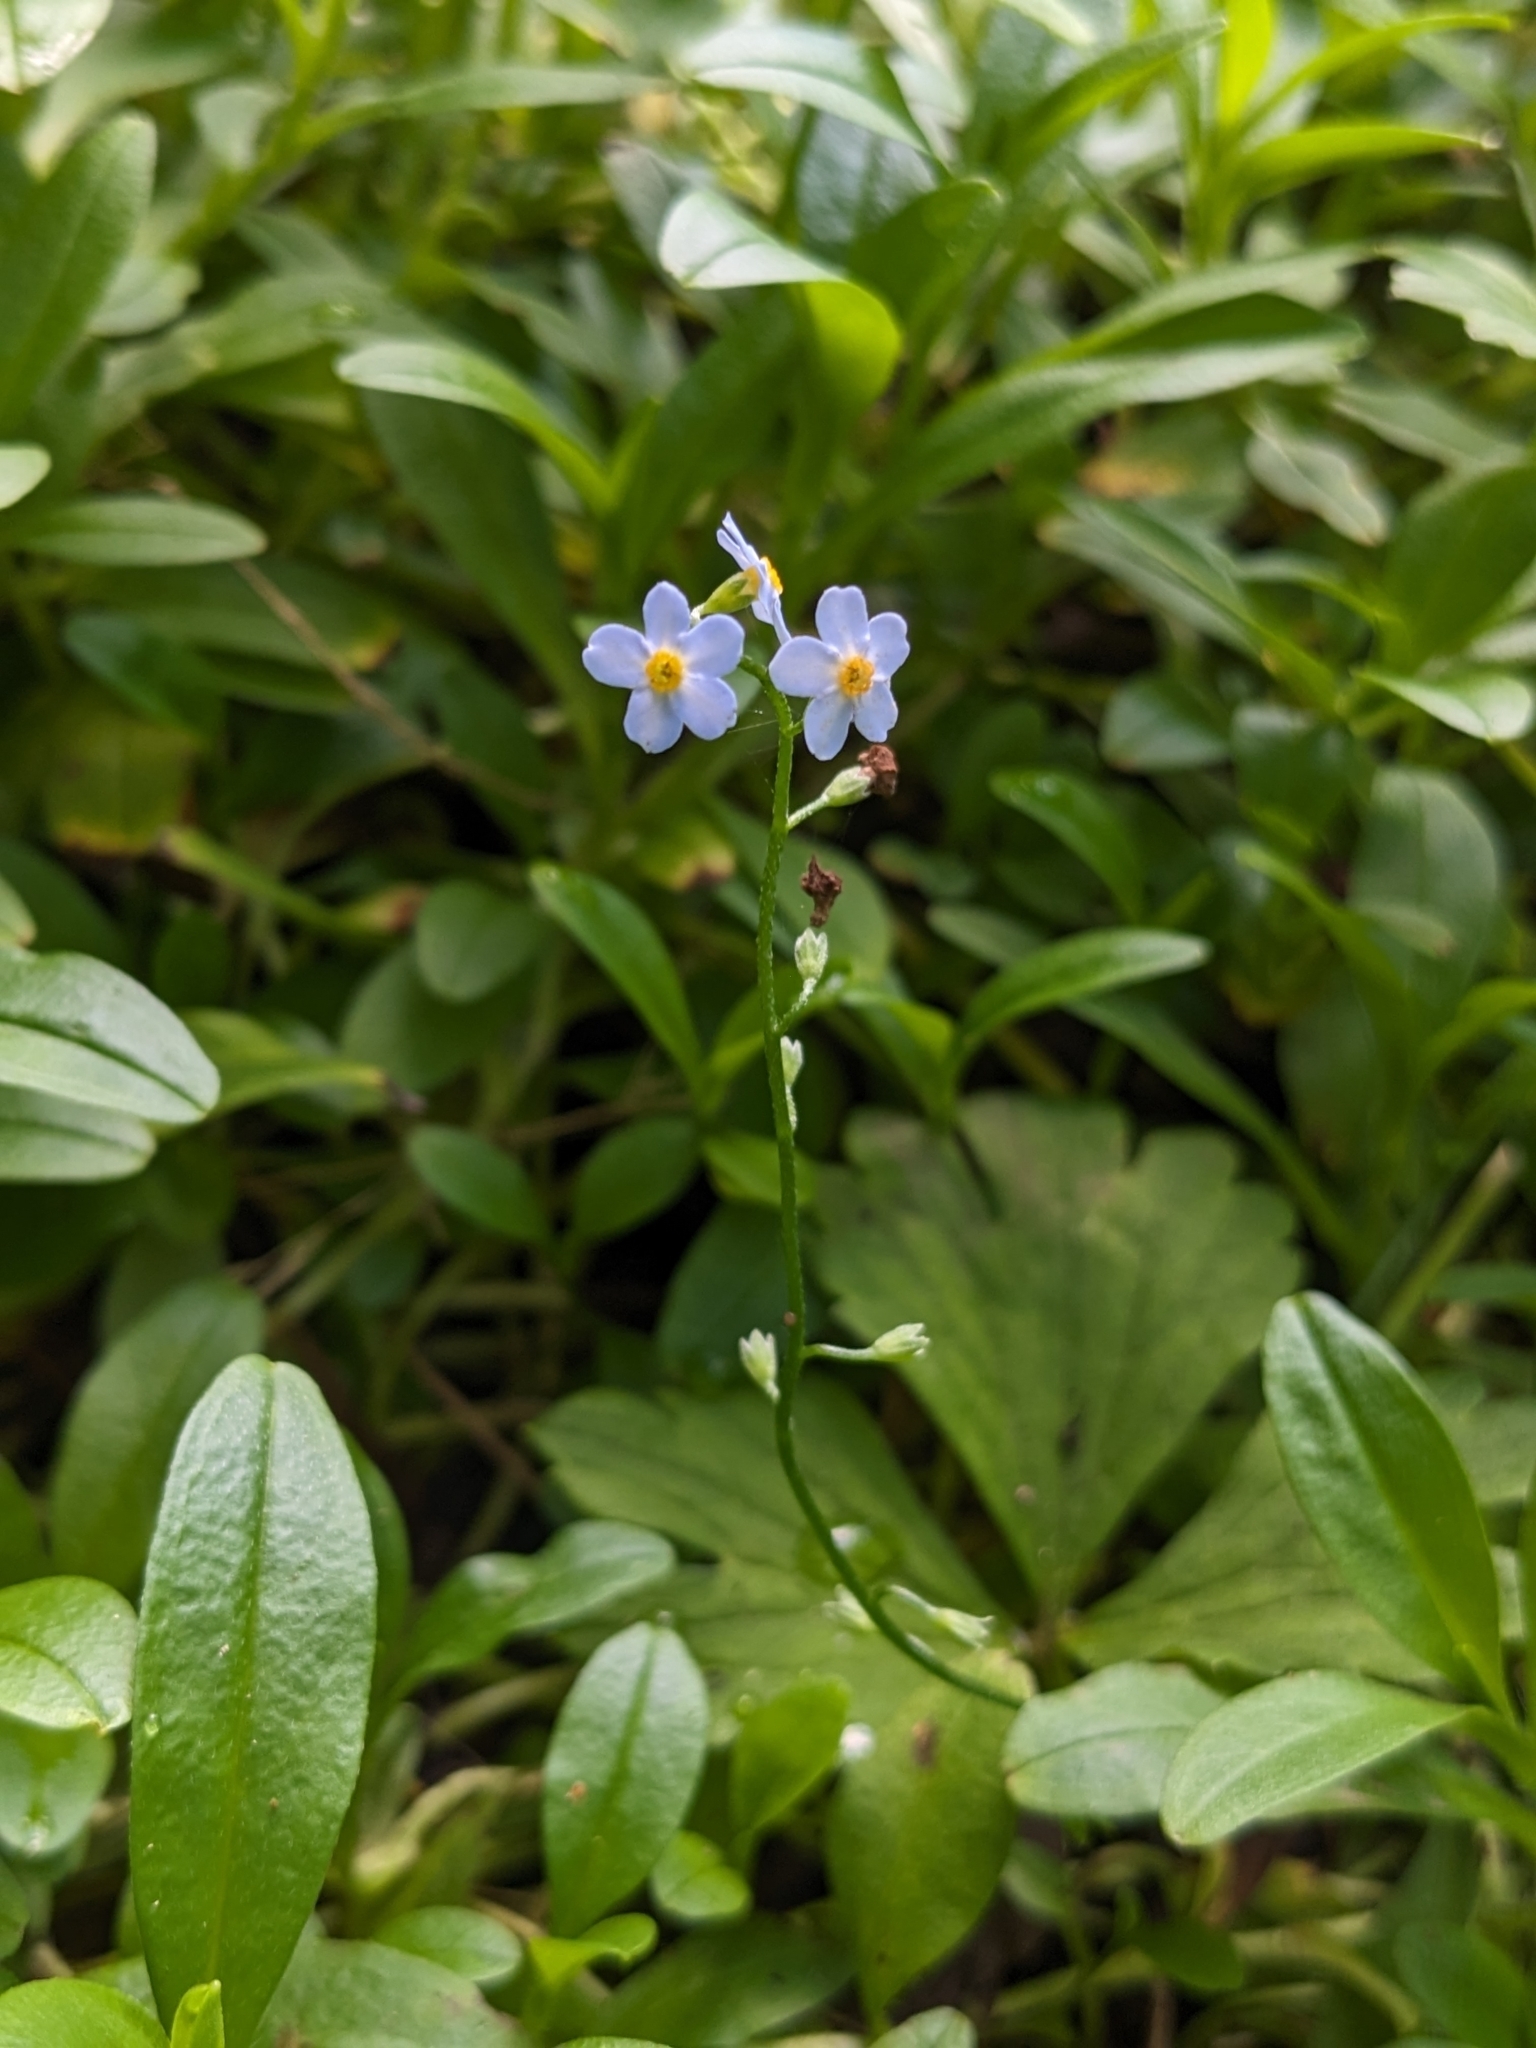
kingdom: Plantae
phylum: Tracheophyta
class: Magnoliopsida
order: Boraginales
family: Boraginaceae
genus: Myosotis
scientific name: Myosotis scorpioides
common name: Water forget-me-not
